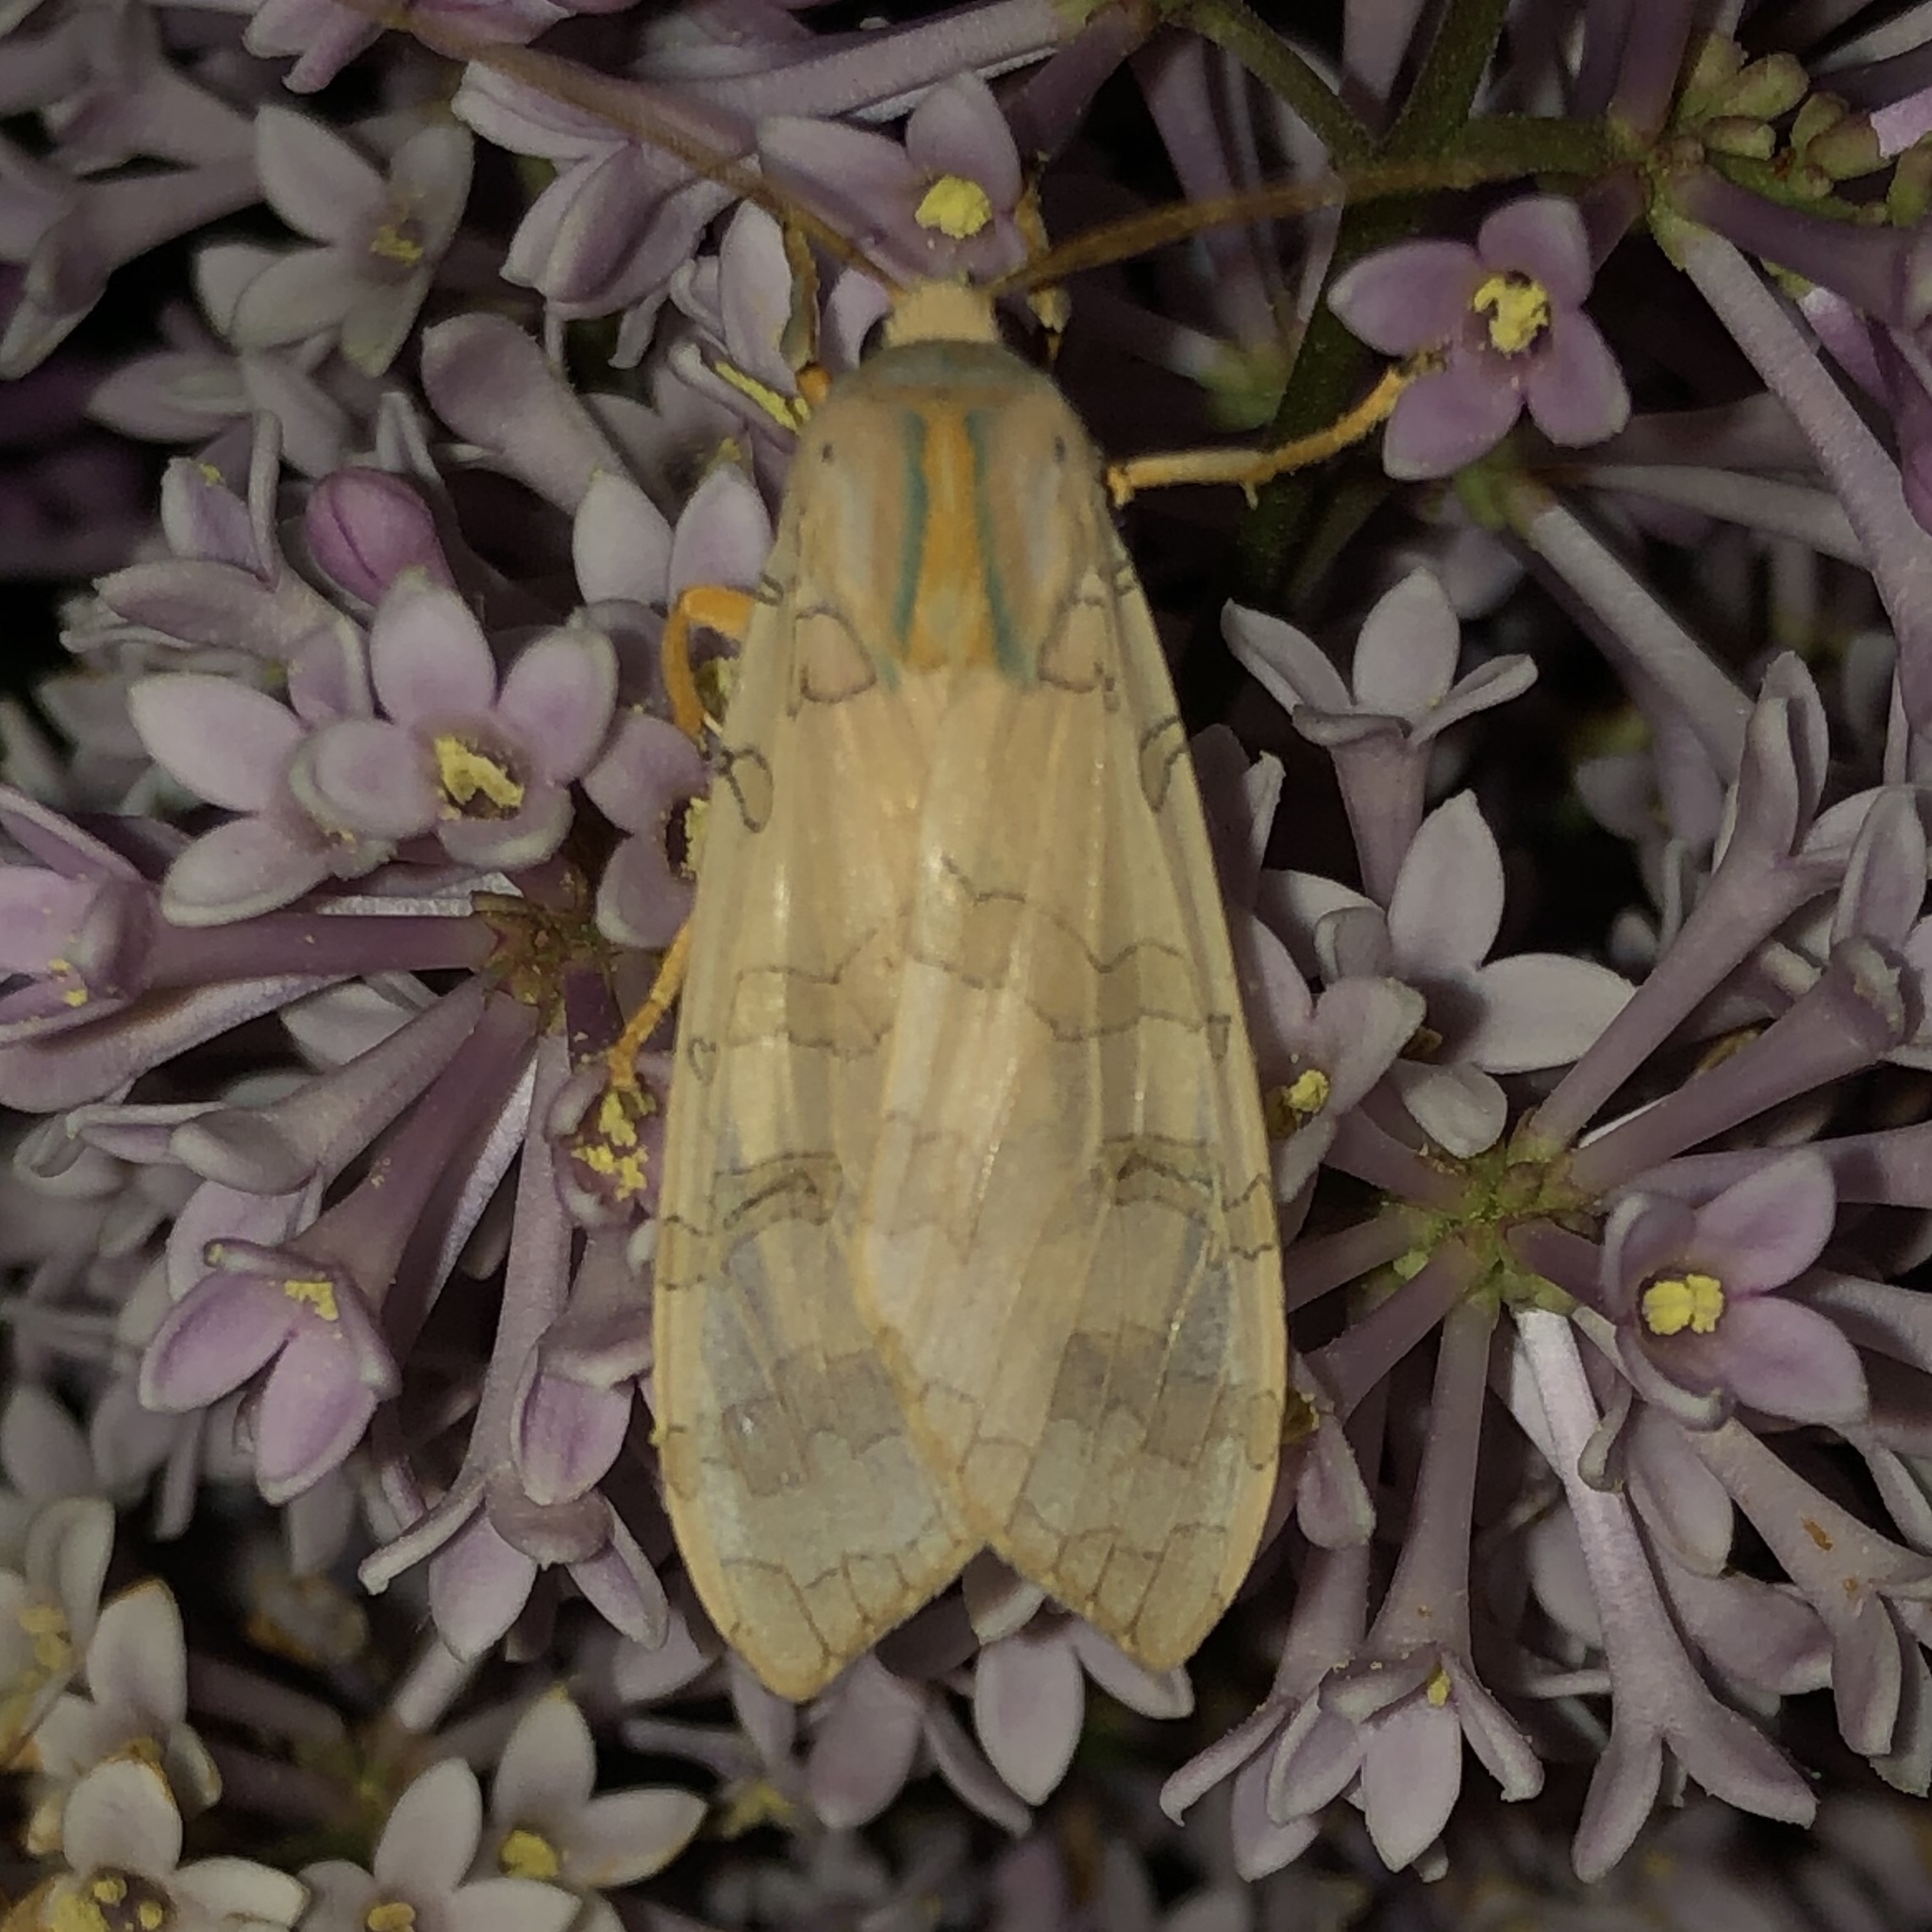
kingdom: Animalia
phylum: Arthropoda
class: Insecta
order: Lepidoptera
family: Erebidae
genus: Halysidota
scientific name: Halysidota tessellaris
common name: Banded tussock moth
